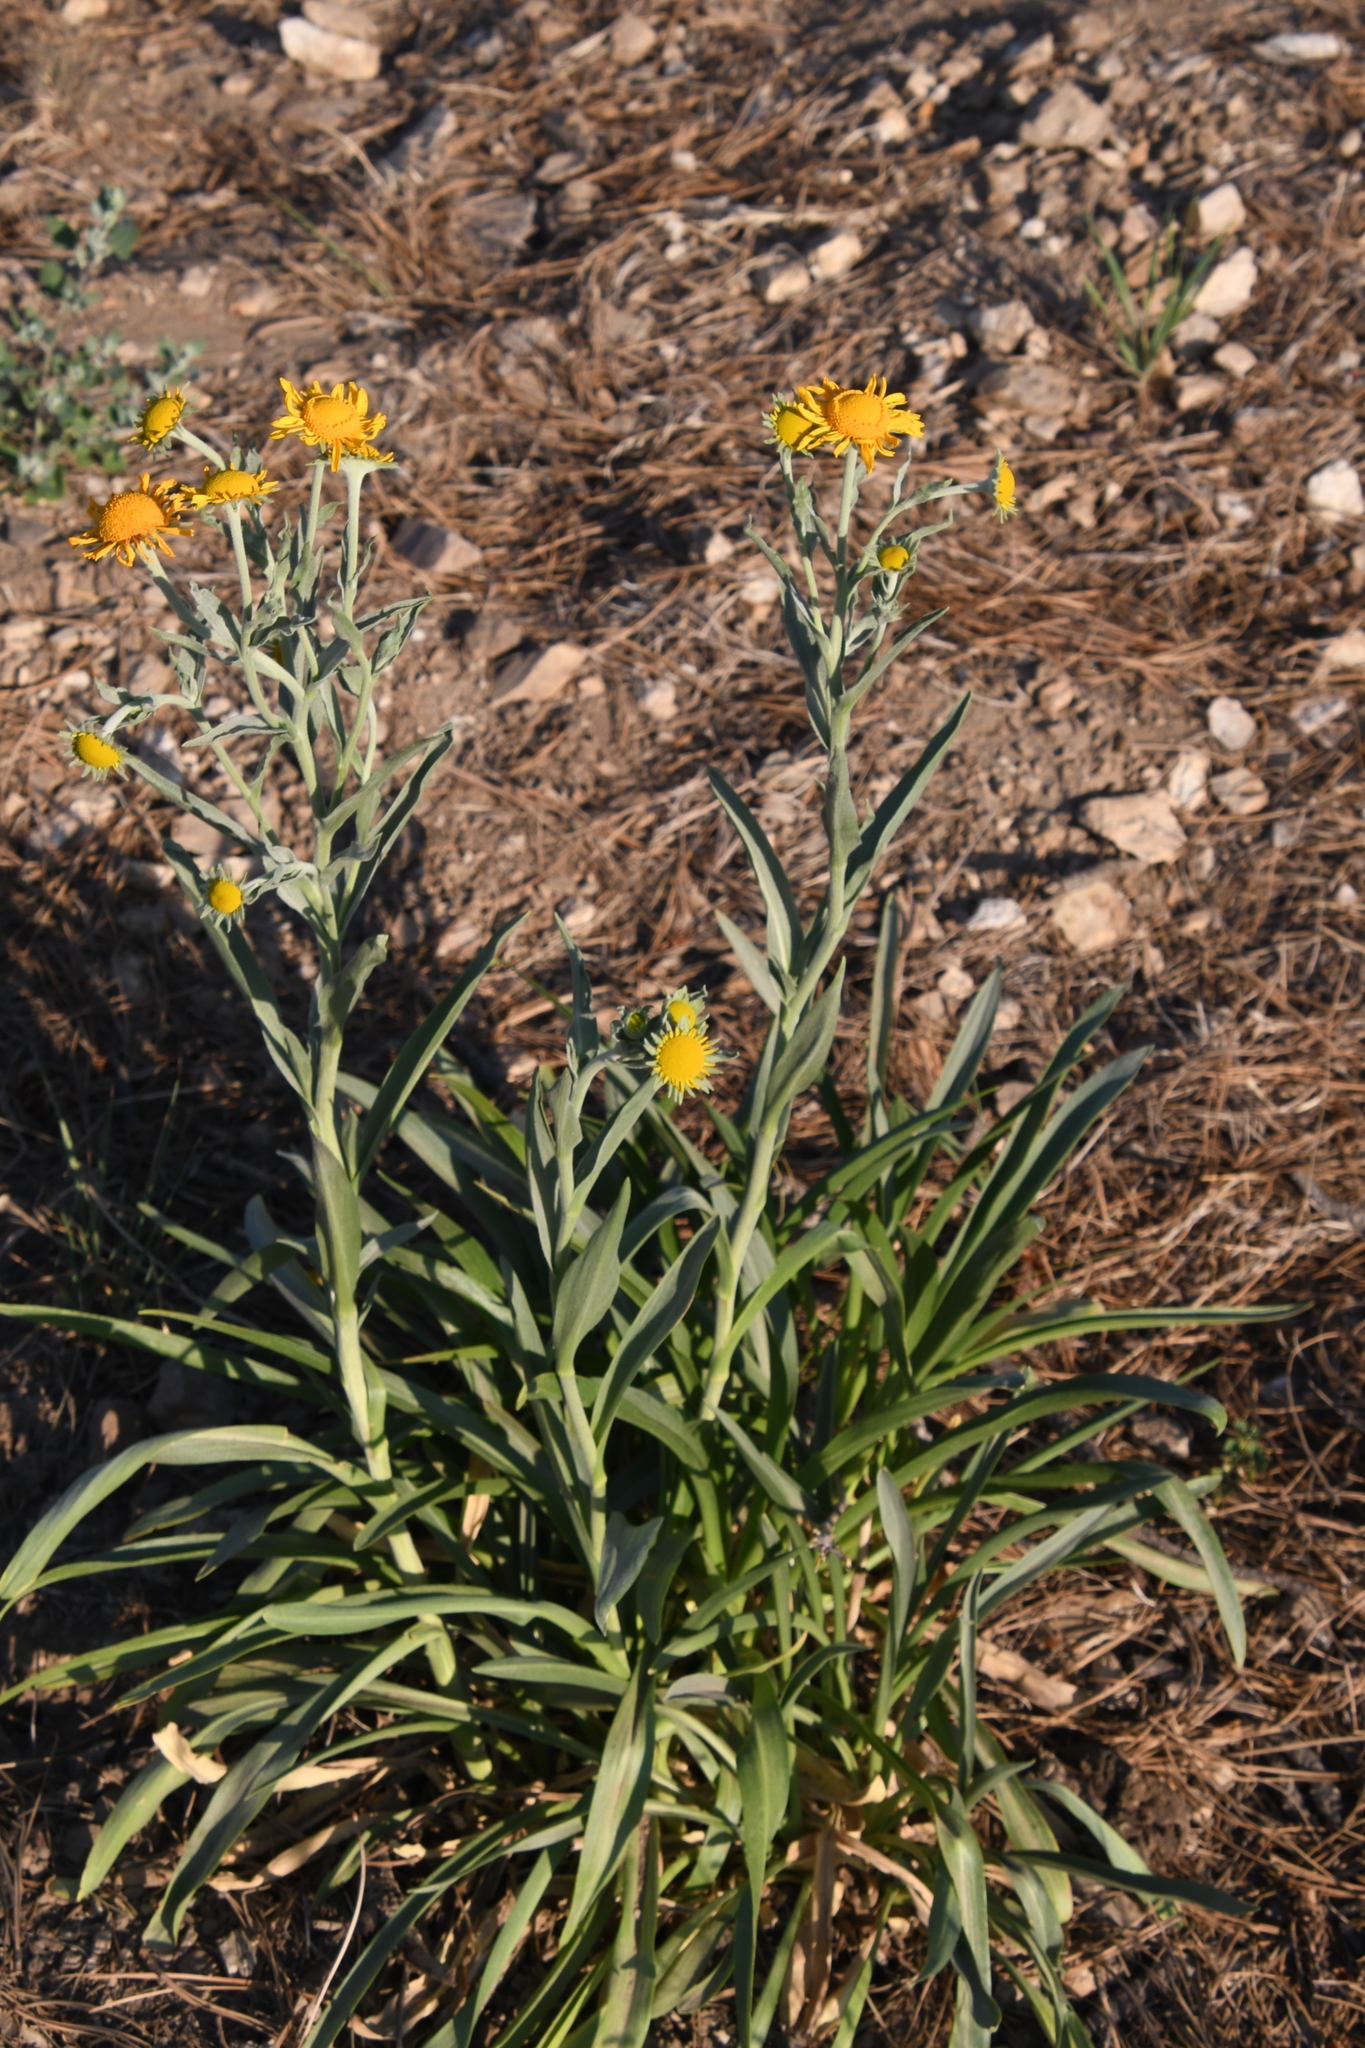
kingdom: Plantae
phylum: Tracheophyta
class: Magnoliopsida
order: Asterales
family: Asteraceae
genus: Hymenoxys
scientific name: Hymenoxys hoopesii
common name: Orange-sneezeweed
